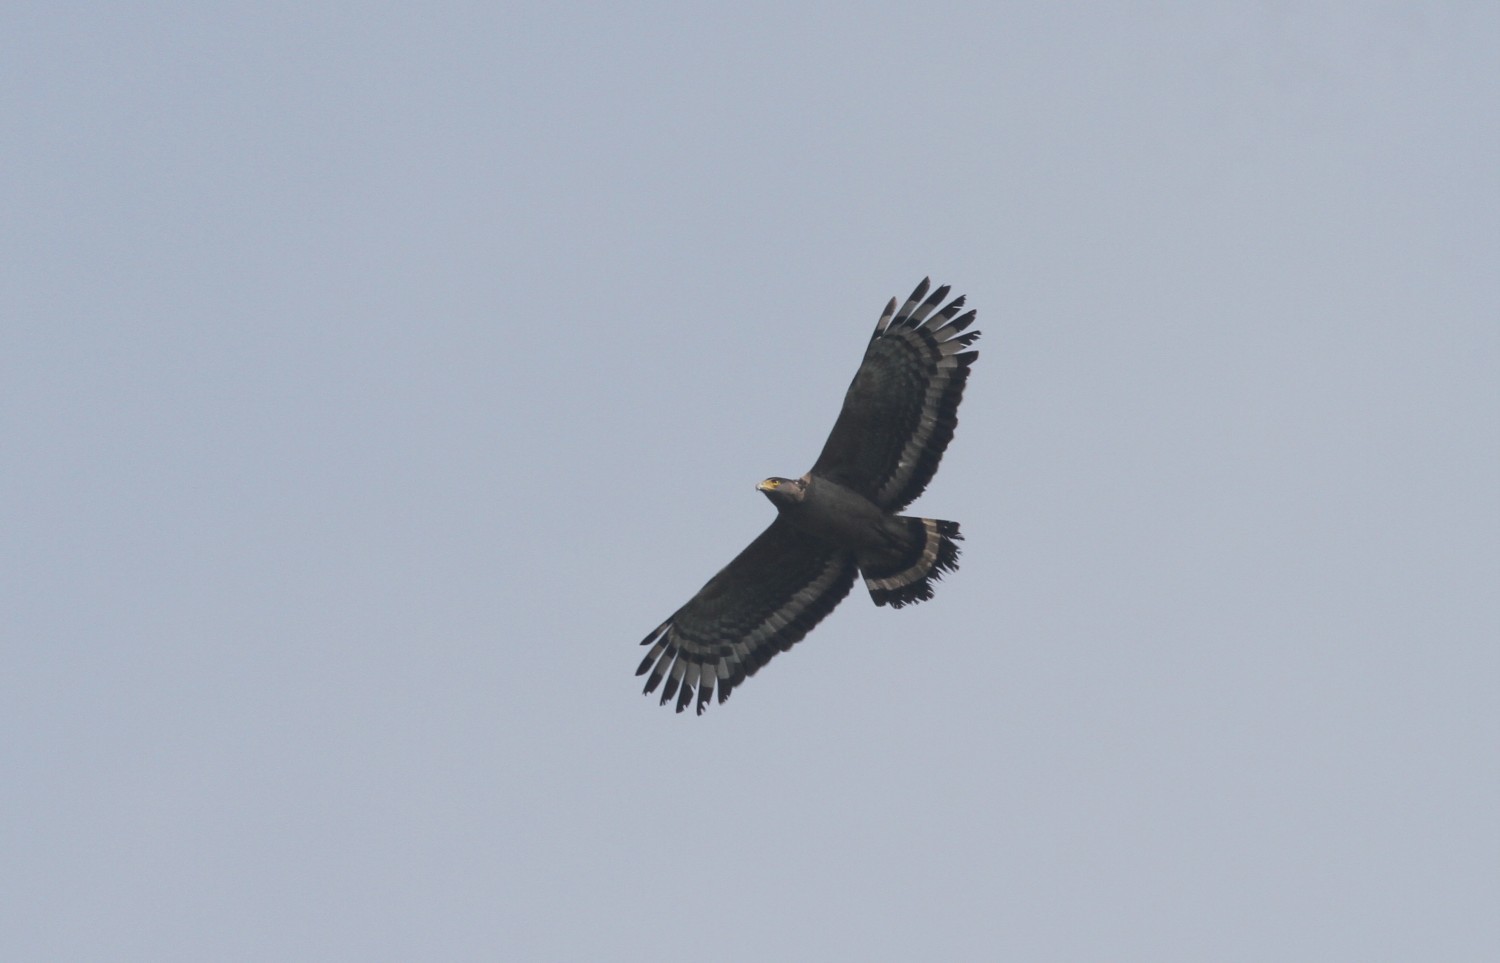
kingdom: Animalia
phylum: Chordata
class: Aves
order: Accipitriformes
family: Accipitridae
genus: Spilornis
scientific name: Spilornis cheela
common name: Crested serpent eagle
